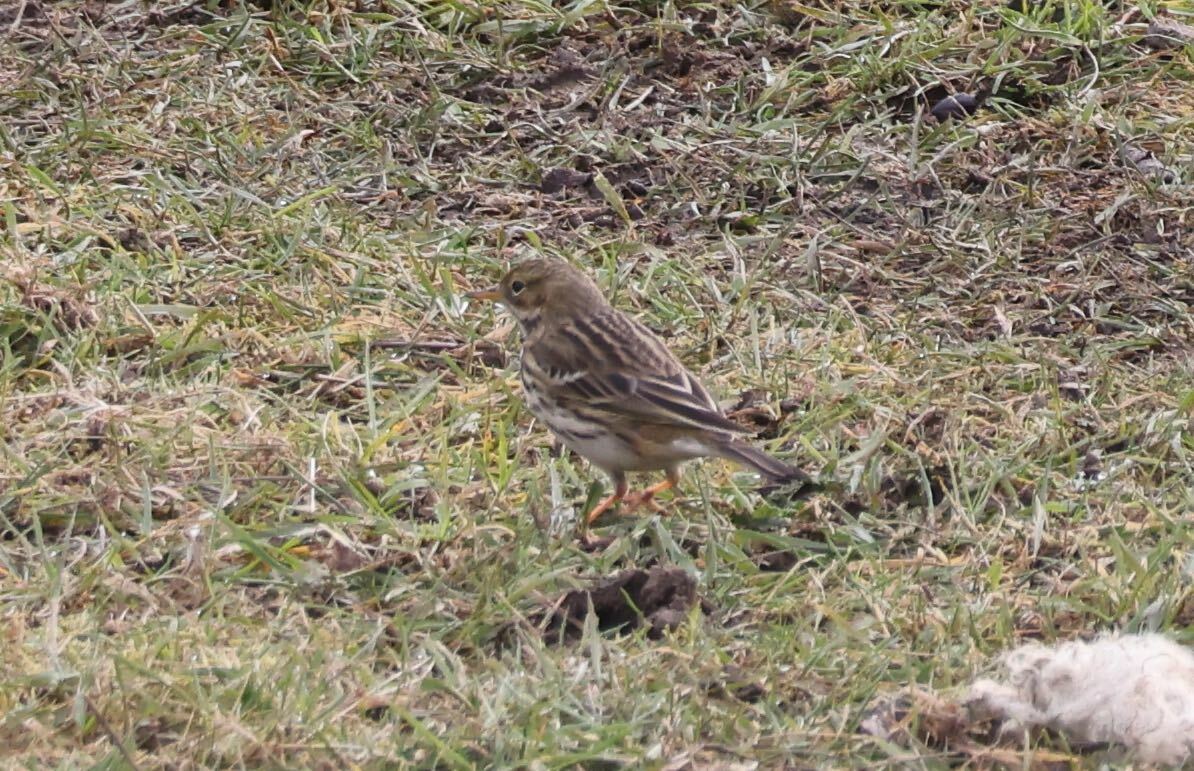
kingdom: Animalia
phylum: Chordata
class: Aves
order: Passeriformes
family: Motacillidae
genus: Anthus
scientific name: Anthus pratensis
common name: Meadow pipit
